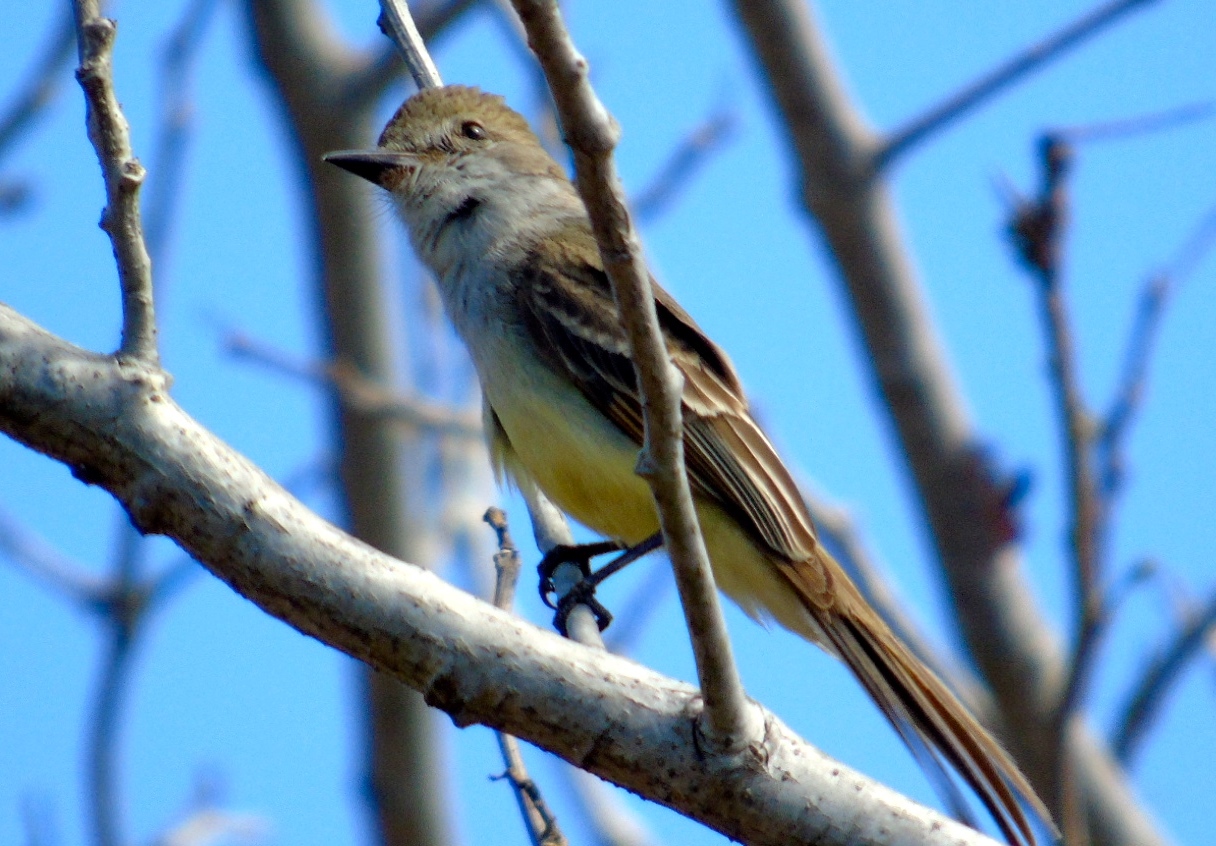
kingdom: Animalia
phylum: Chordata
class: Aves
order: Passeriformes
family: Tyrannidae
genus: Myiarchus
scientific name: Myiarchus
